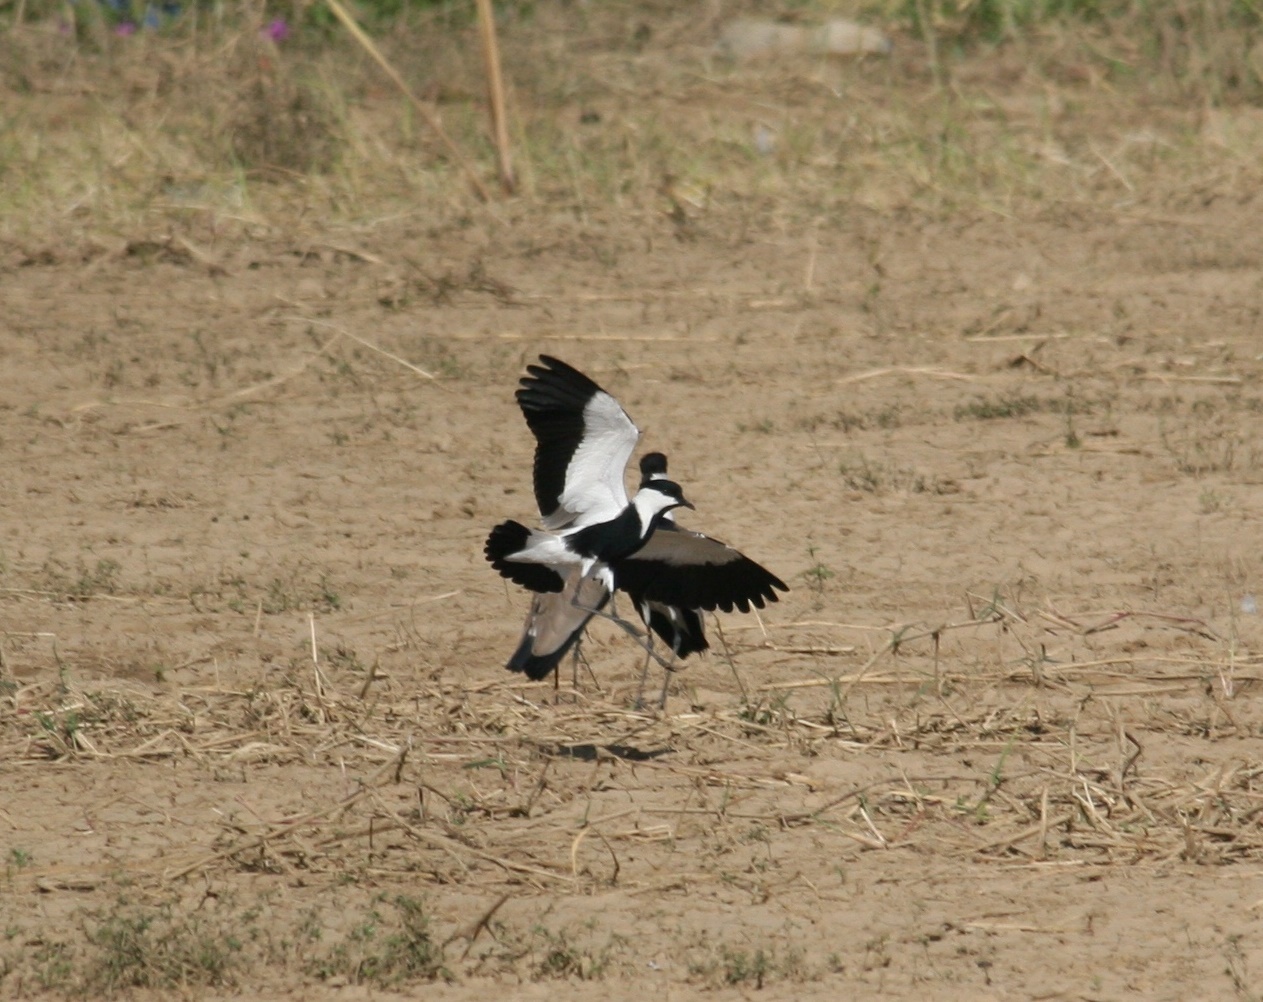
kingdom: Animalia
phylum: Chordata
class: Aves
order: Charadriiformes
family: Charadriidae
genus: Vanellus
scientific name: Vanellus spinosus
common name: Spur-winged lapwing
